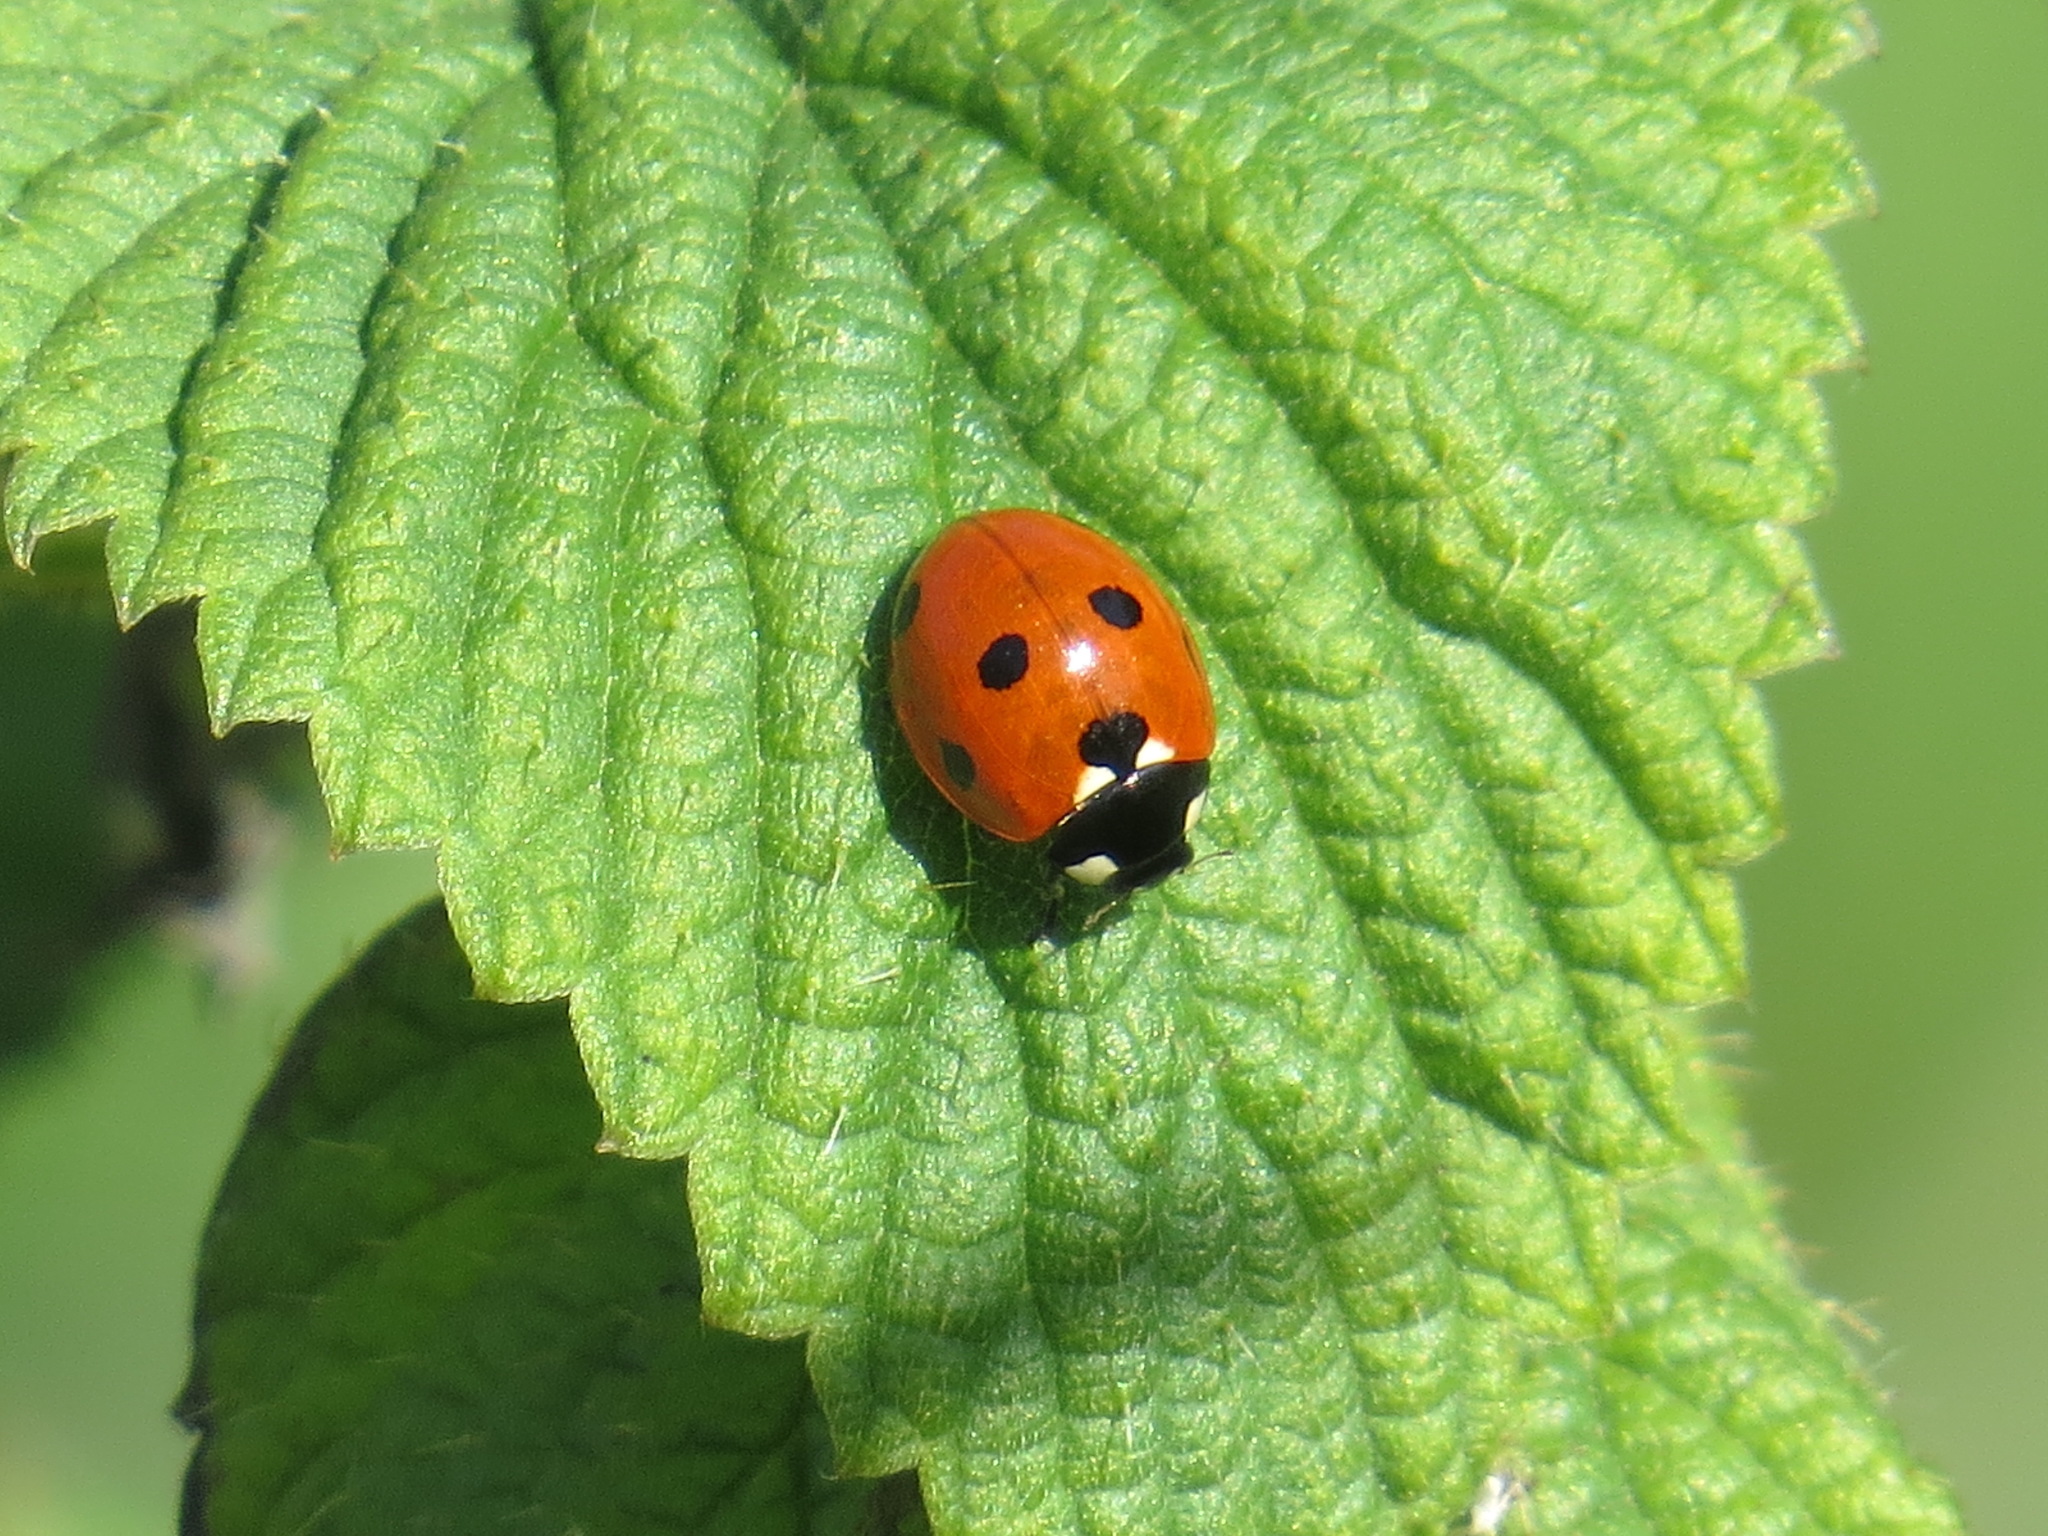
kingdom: Animalia
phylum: Arthropoda
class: Insecta
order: Coleoptera
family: Coccinellidae
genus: Coccinella
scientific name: Coccinella septempunctata
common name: Sevenspotted lady beetle
